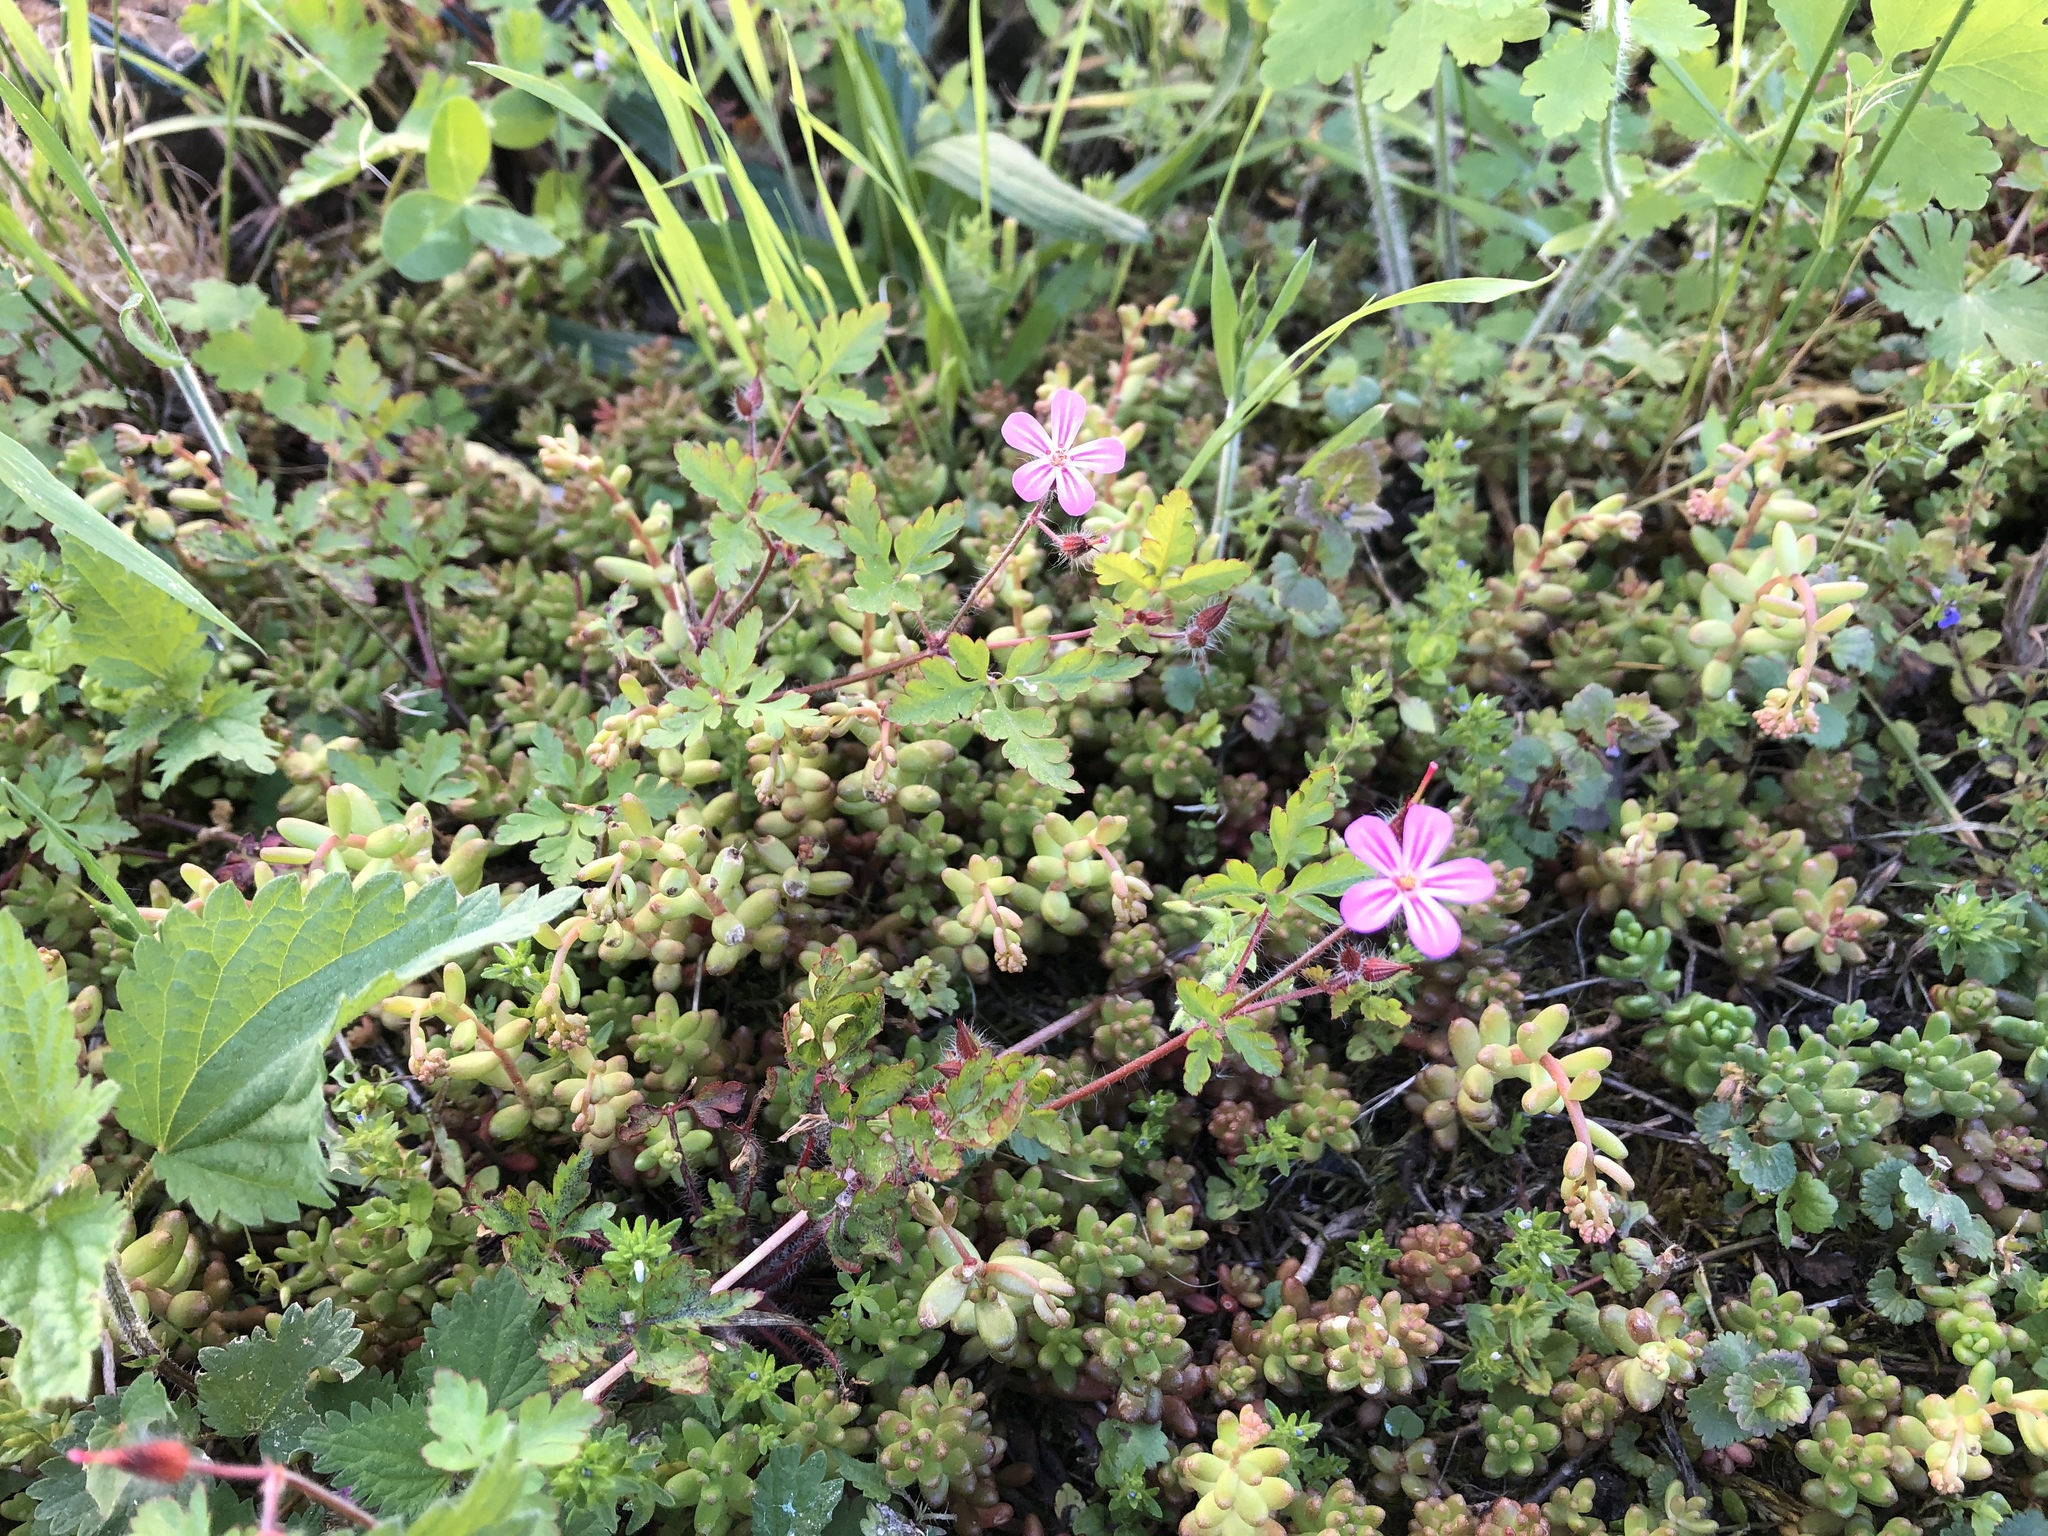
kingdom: Plantae
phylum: Tracheophyta
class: Magnoliopsida
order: Geraniales
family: Geraniaceae
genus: Geranium
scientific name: Geranium robertianum
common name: Herb-robert
